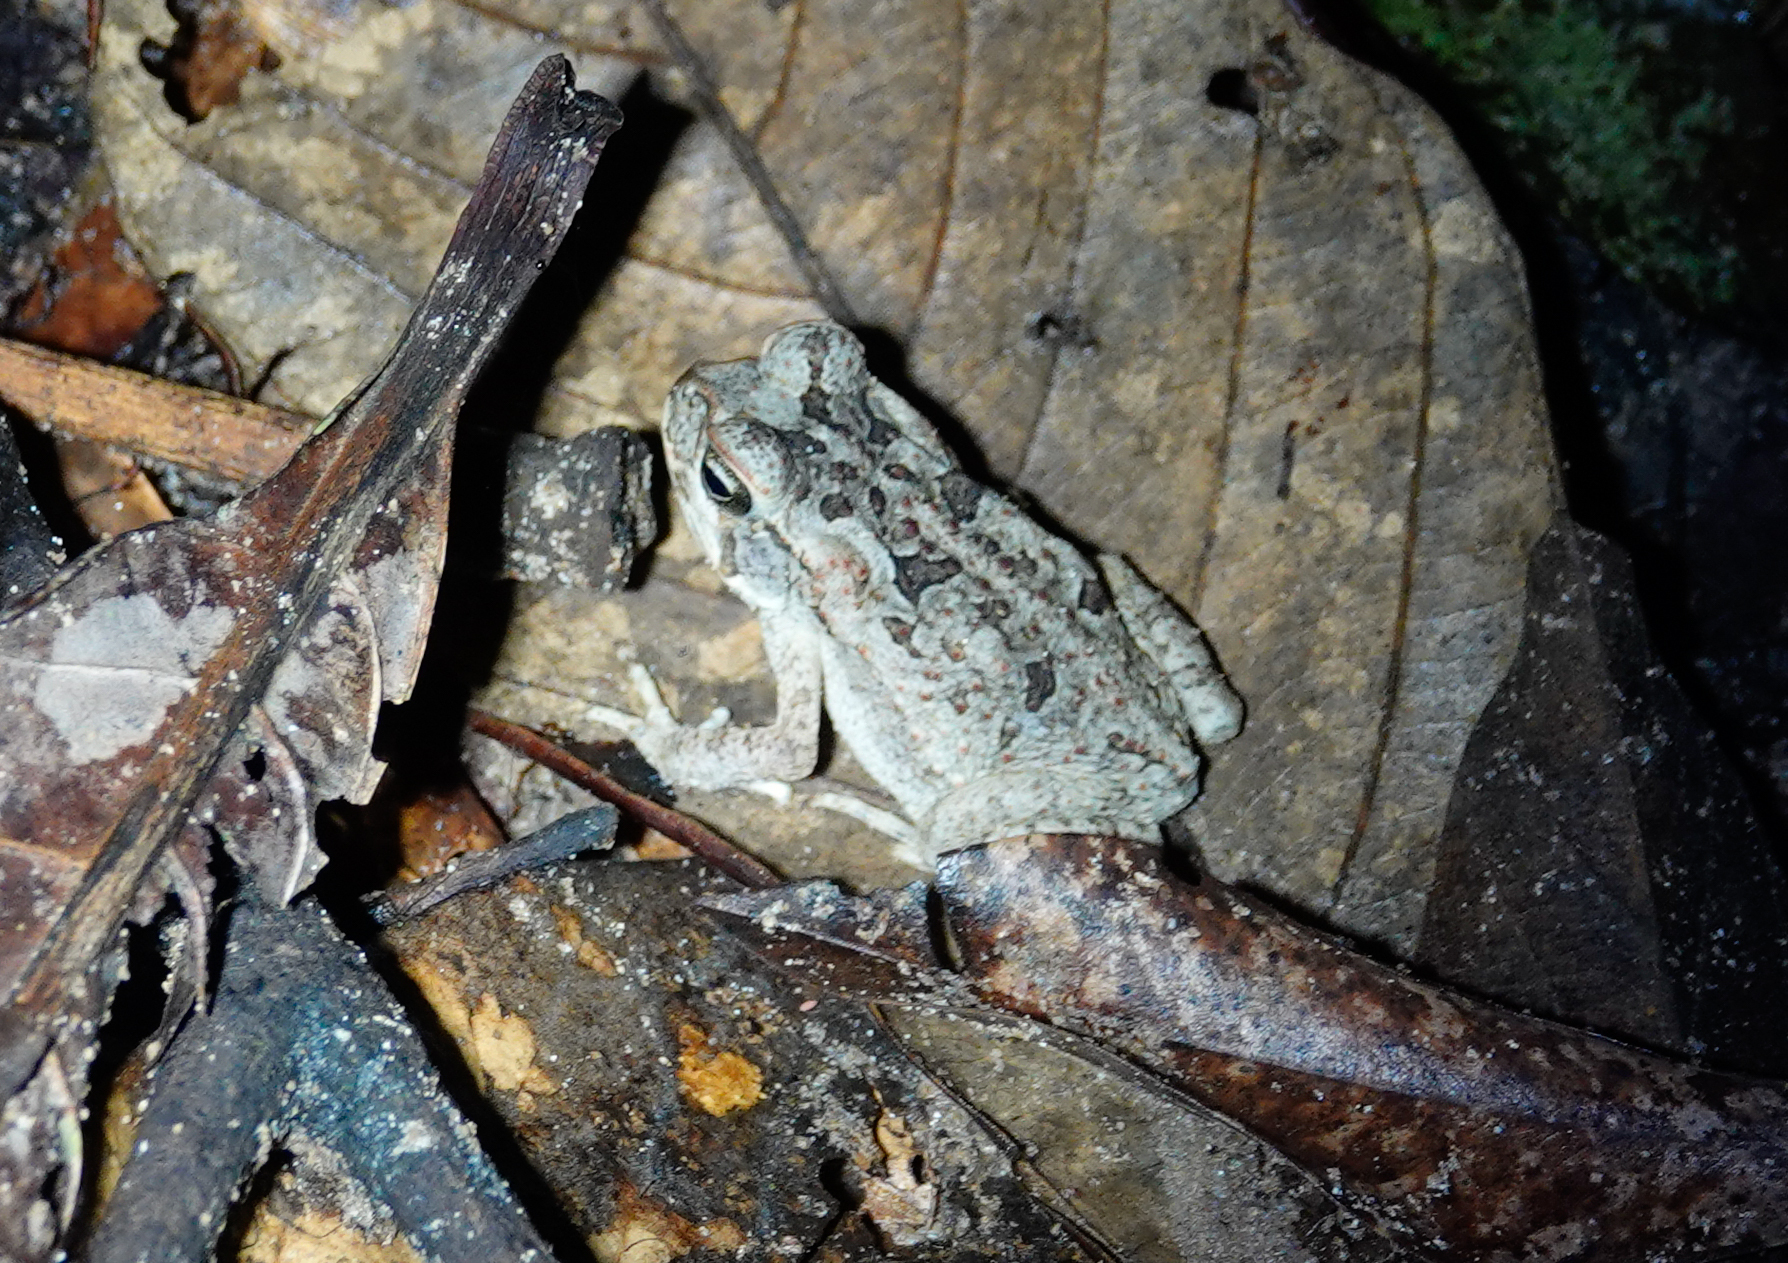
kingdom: Animalia
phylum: Chordata
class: Amphibia
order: Anura
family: Bufonidae
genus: Rhinella
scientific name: Rhinella marina
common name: Cane toad
